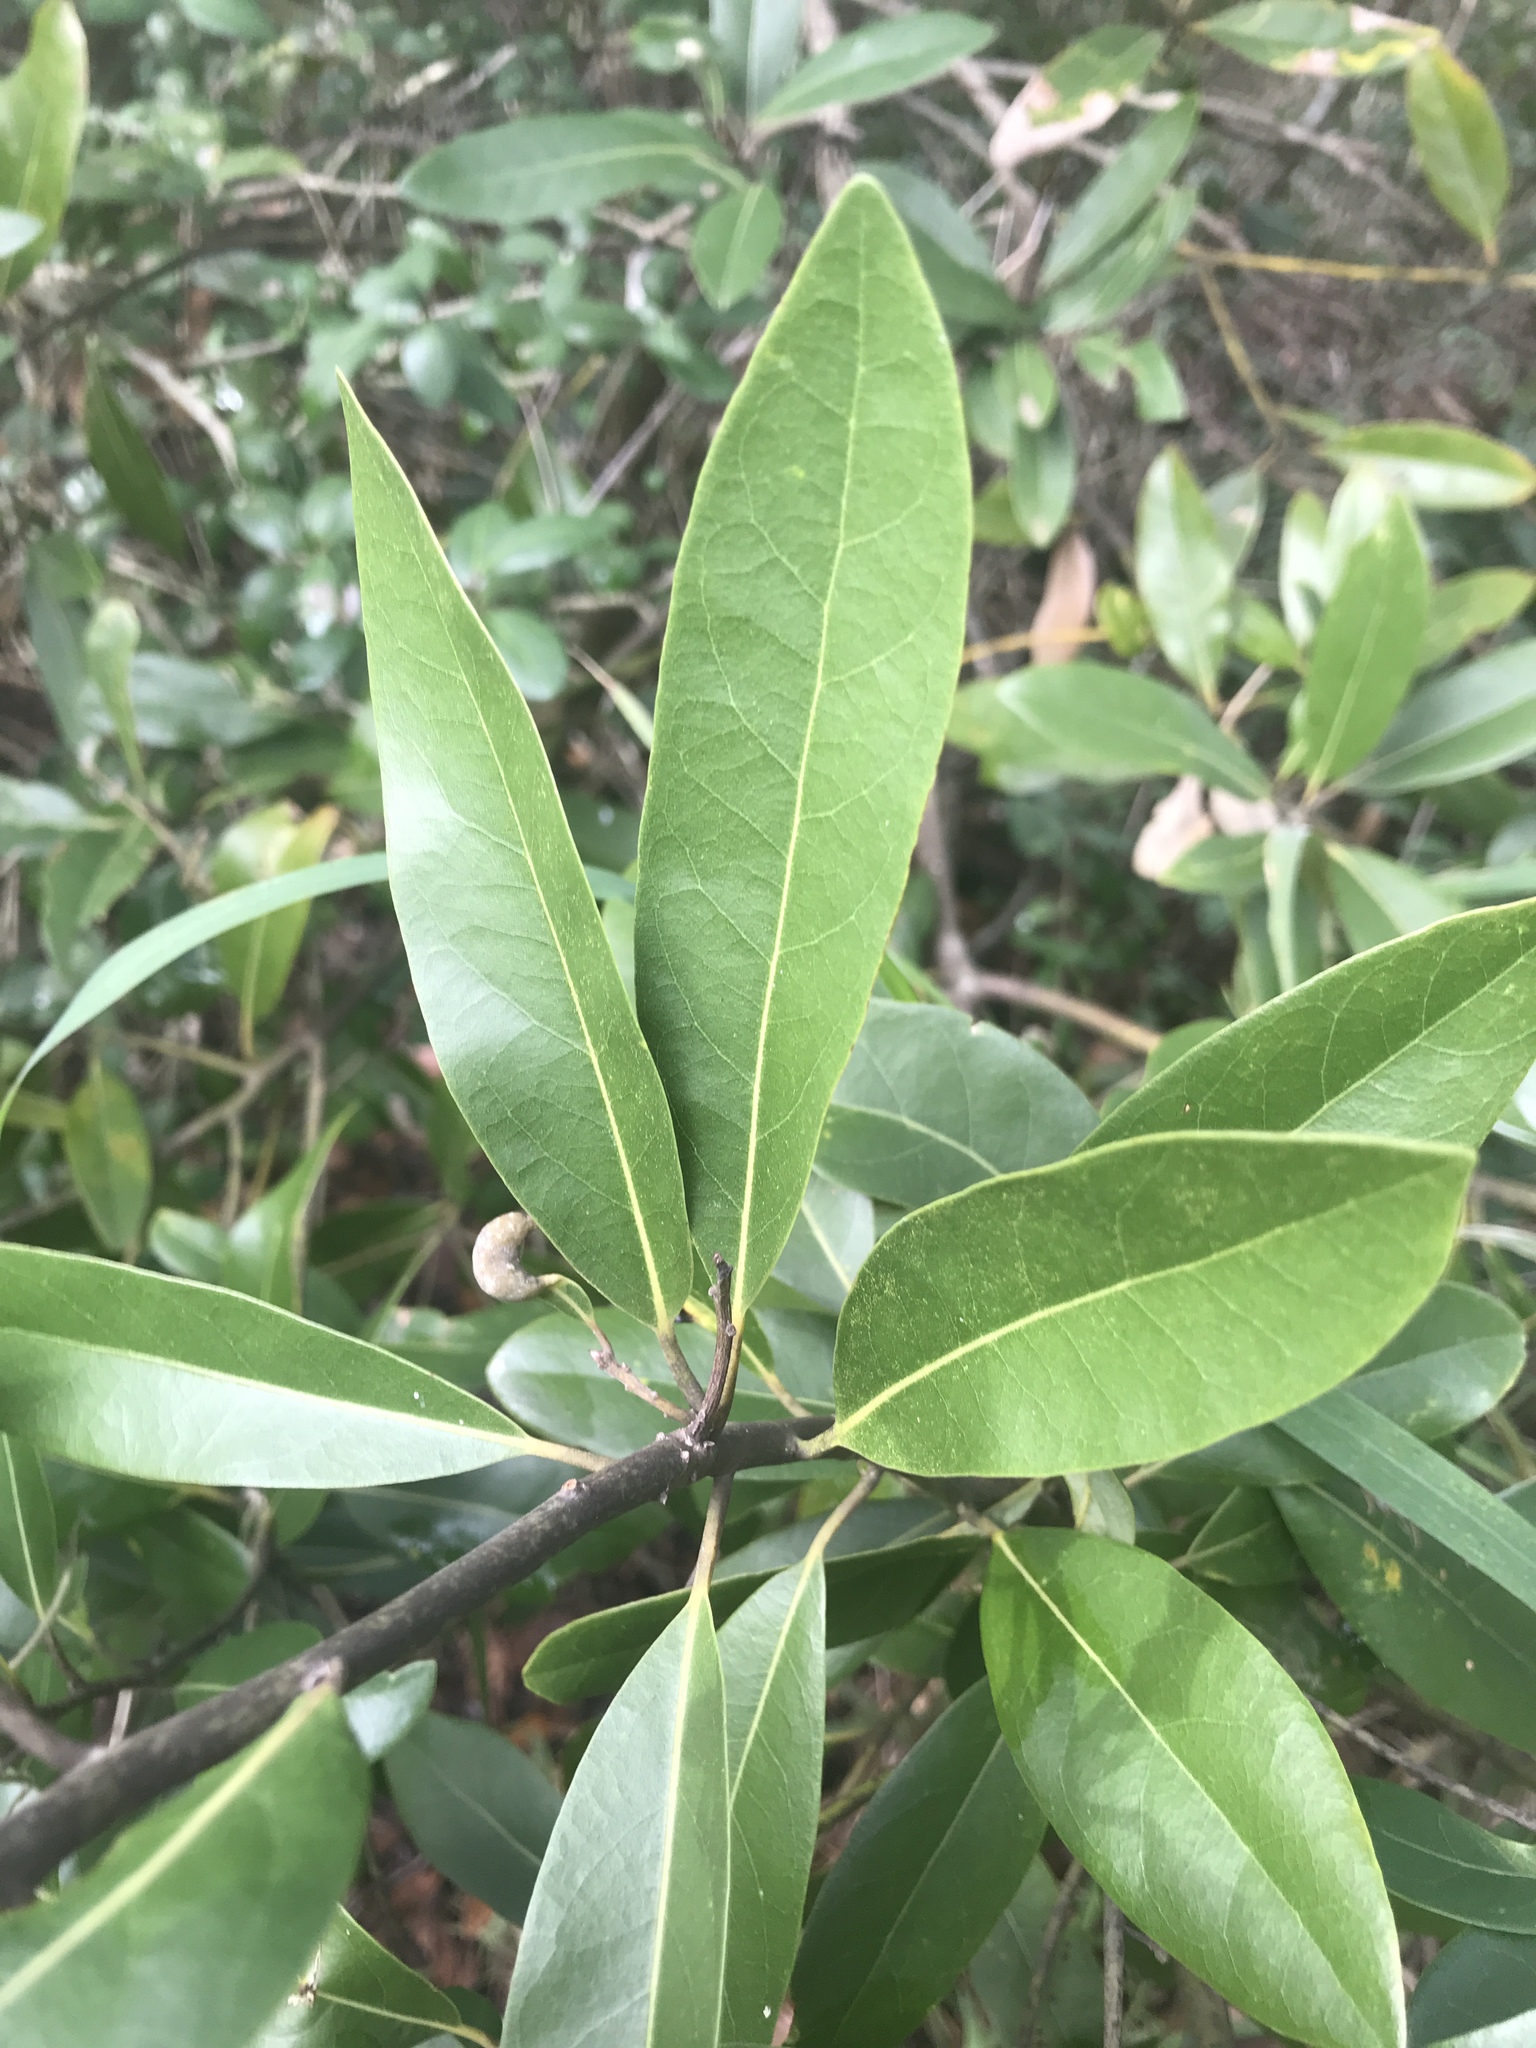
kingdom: Plantae
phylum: Tracheophyta
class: Magnoliopsida
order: Laurales
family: Lauraceae
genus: Persea
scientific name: Persea borbonia
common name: Redbay
